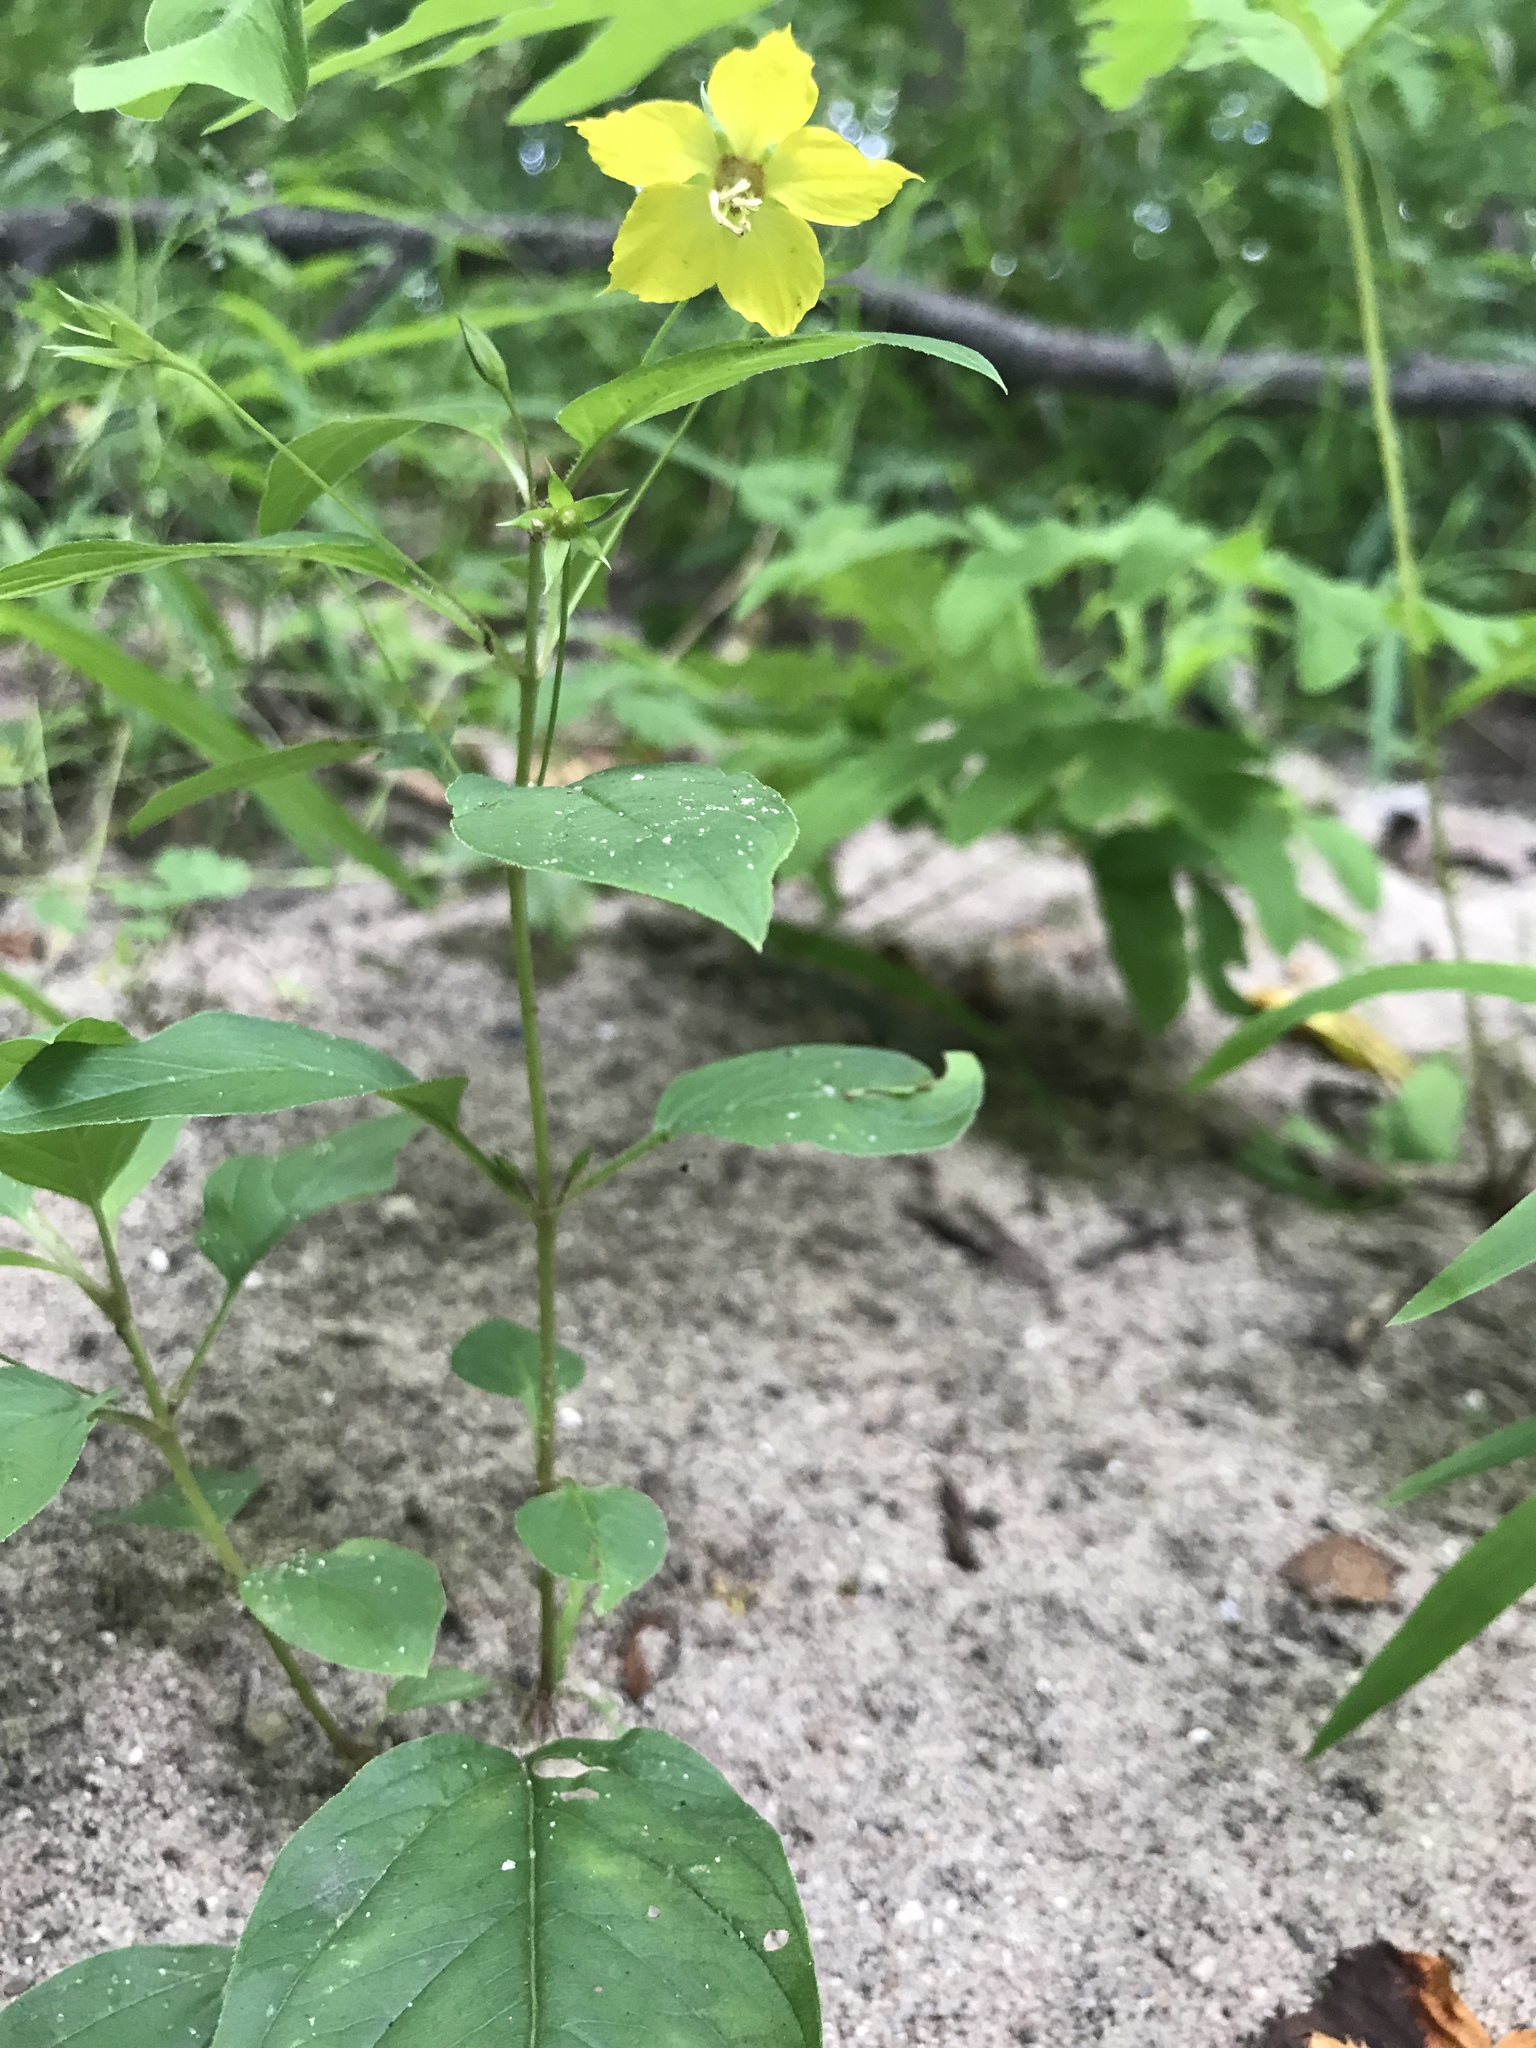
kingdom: Plantae
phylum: Tracheophyta
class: Magnoliopsida
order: Ericales
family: Primulaceae
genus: Lysimachia
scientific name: Lysimachia ciliata
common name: Fringed loosestrife
